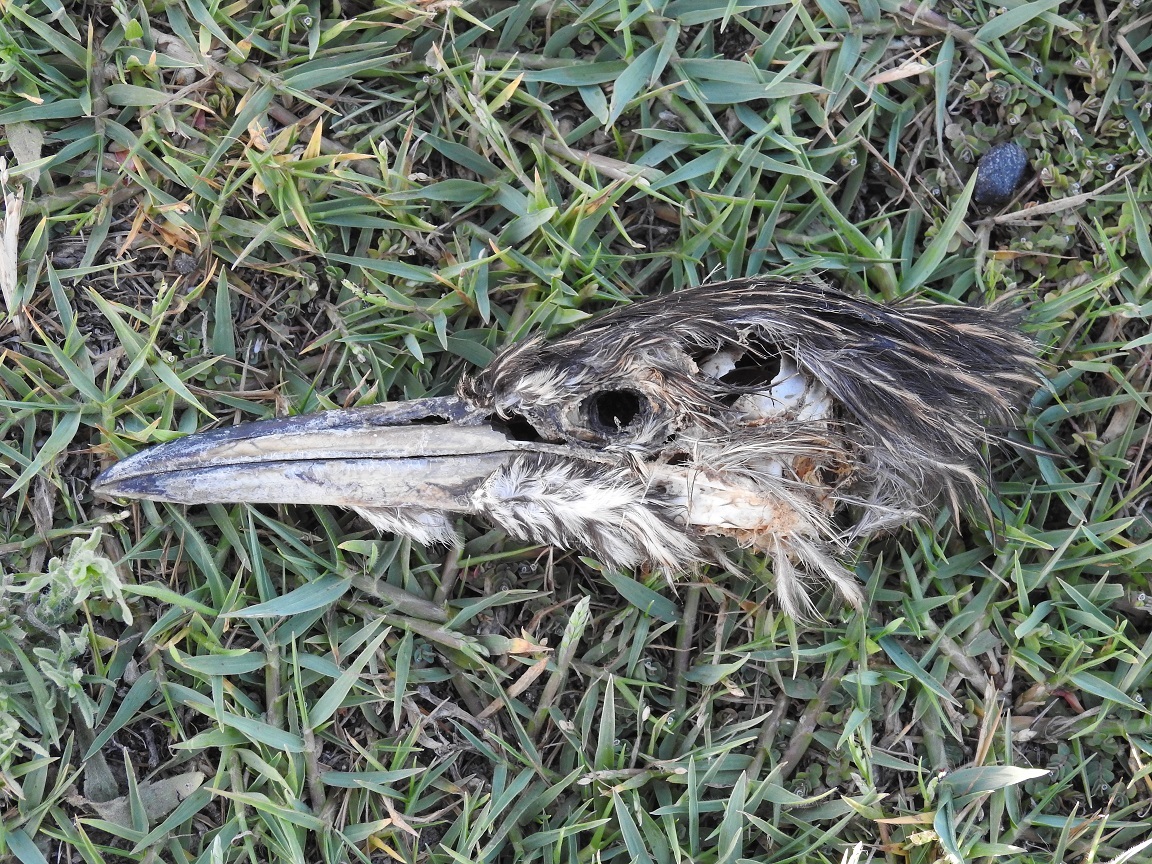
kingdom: Animalia
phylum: Chordata
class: Aves
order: Pelecaniformes
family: Ardeidae
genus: Nycticorax
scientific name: Nycticorax nycticorax
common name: Black-crowned night heron
